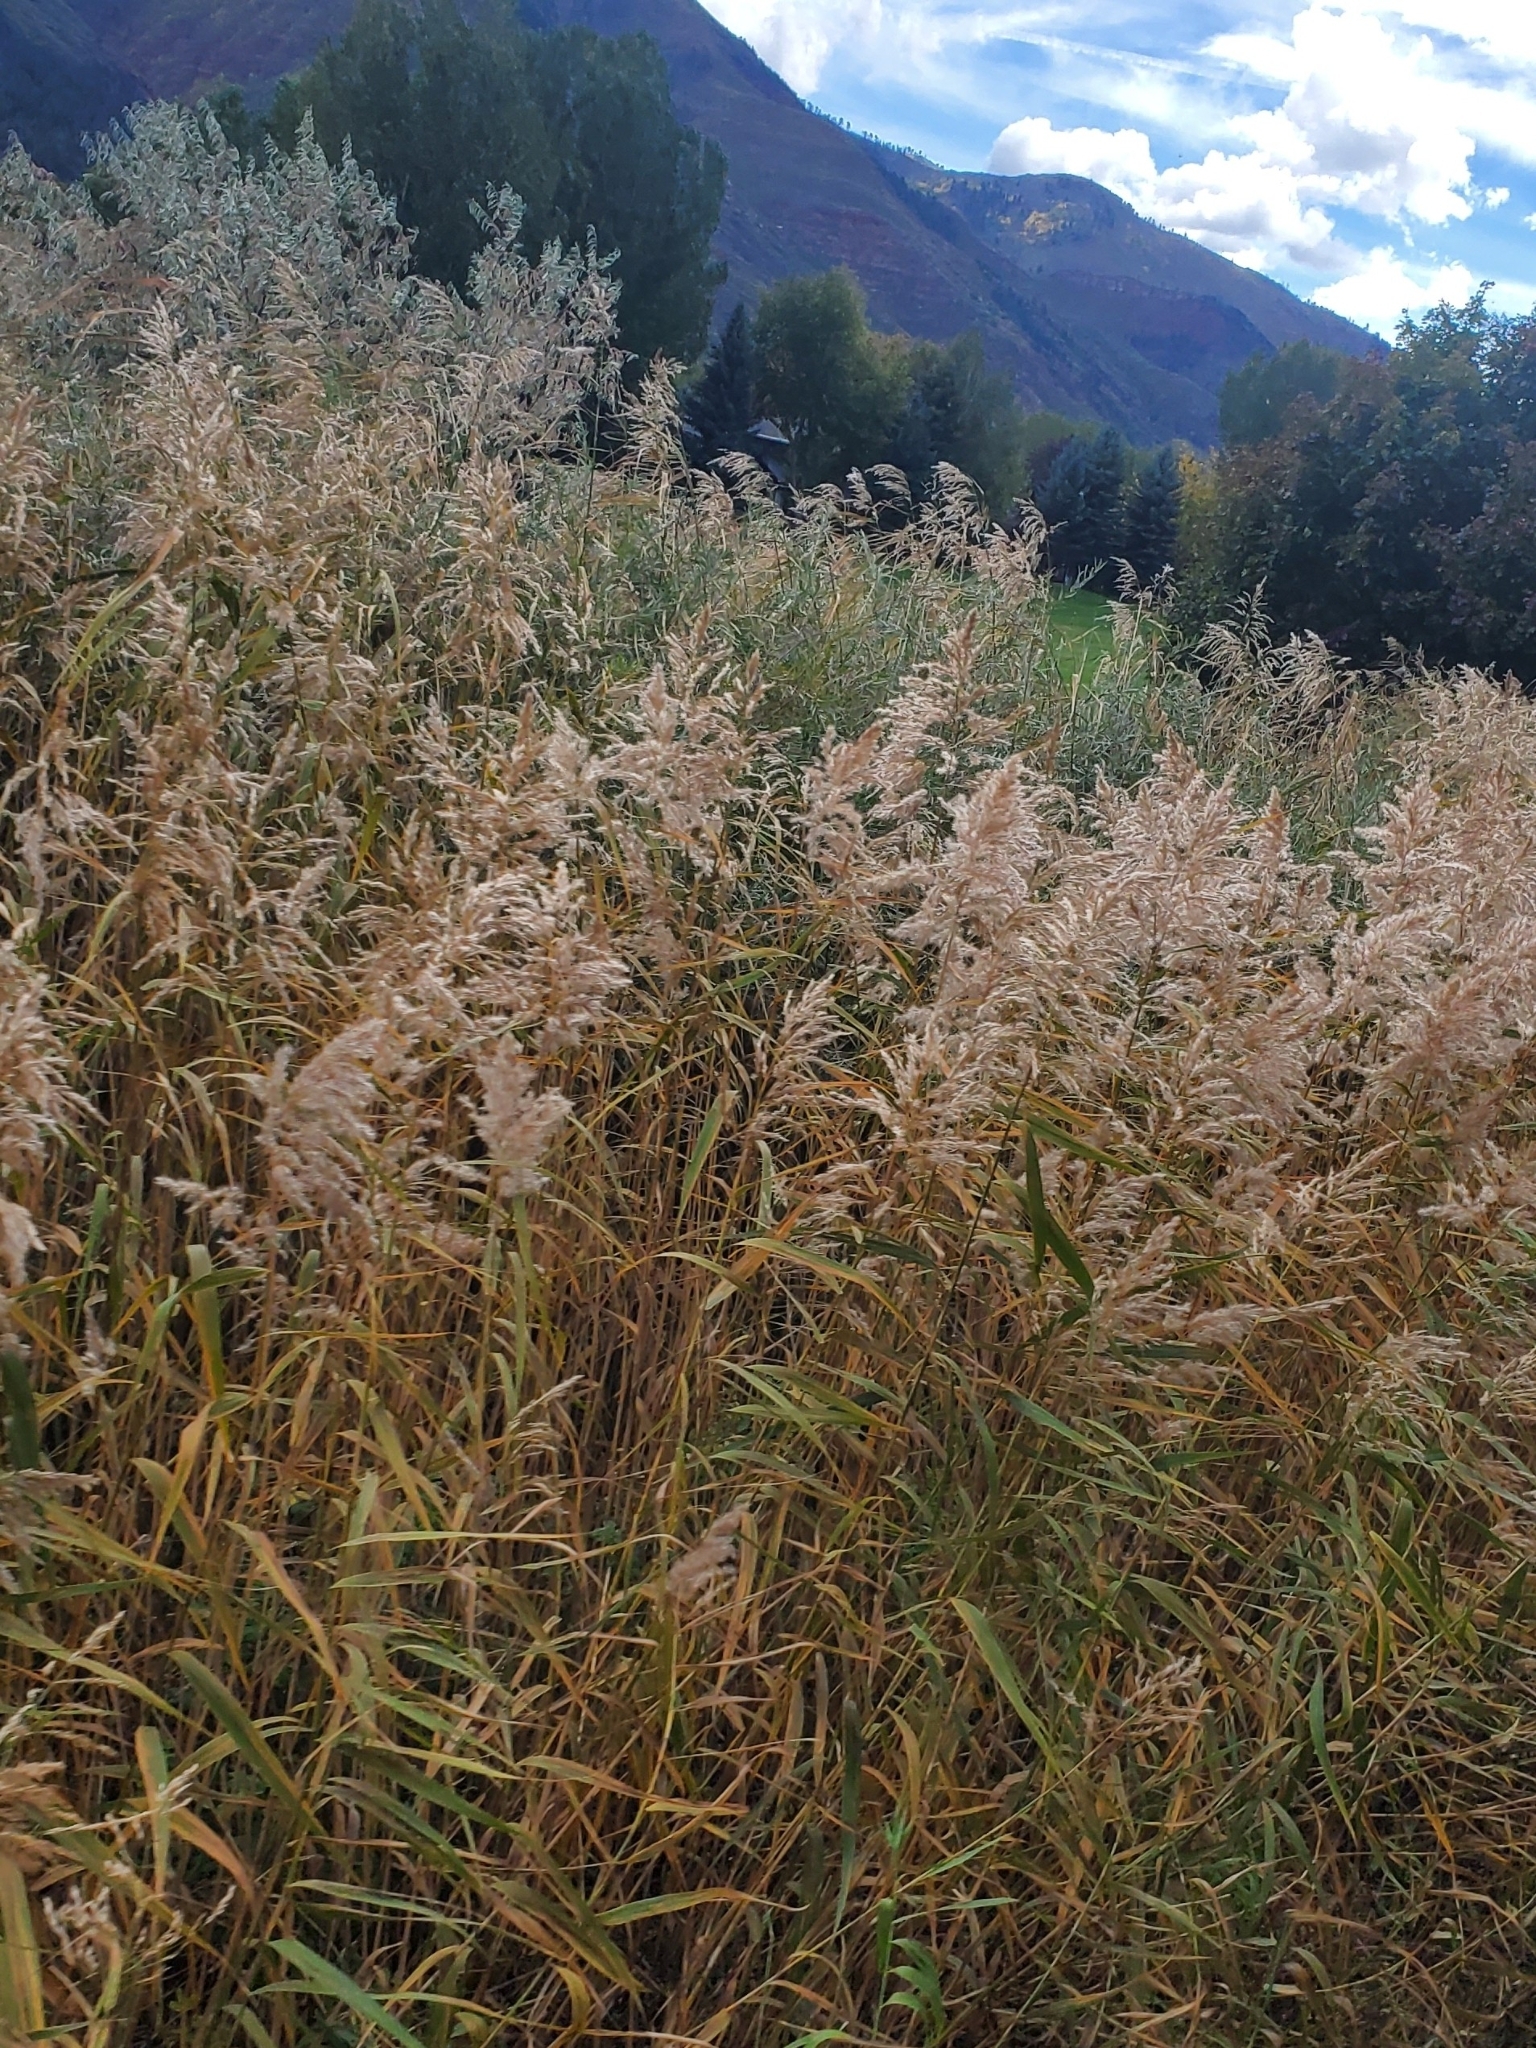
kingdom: Plantae
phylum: Tracheophyta
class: Liliopsida
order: Poales
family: Poaceae
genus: Phragmites
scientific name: Phragmites australis
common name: Common reed
